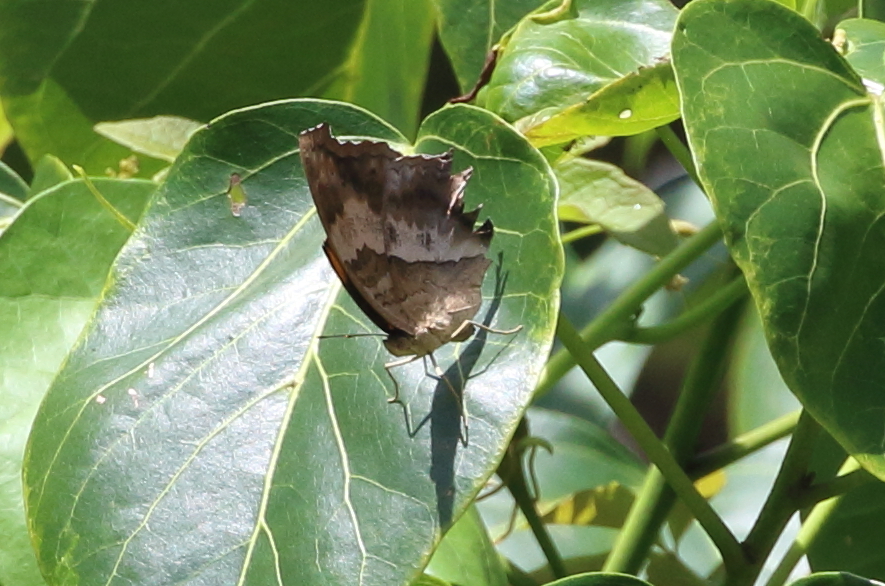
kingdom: Animalia
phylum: Arthropoda
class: Insecta
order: Lepidoptera
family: Nymphalidae
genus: Yoma
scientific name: Yoma sabina
